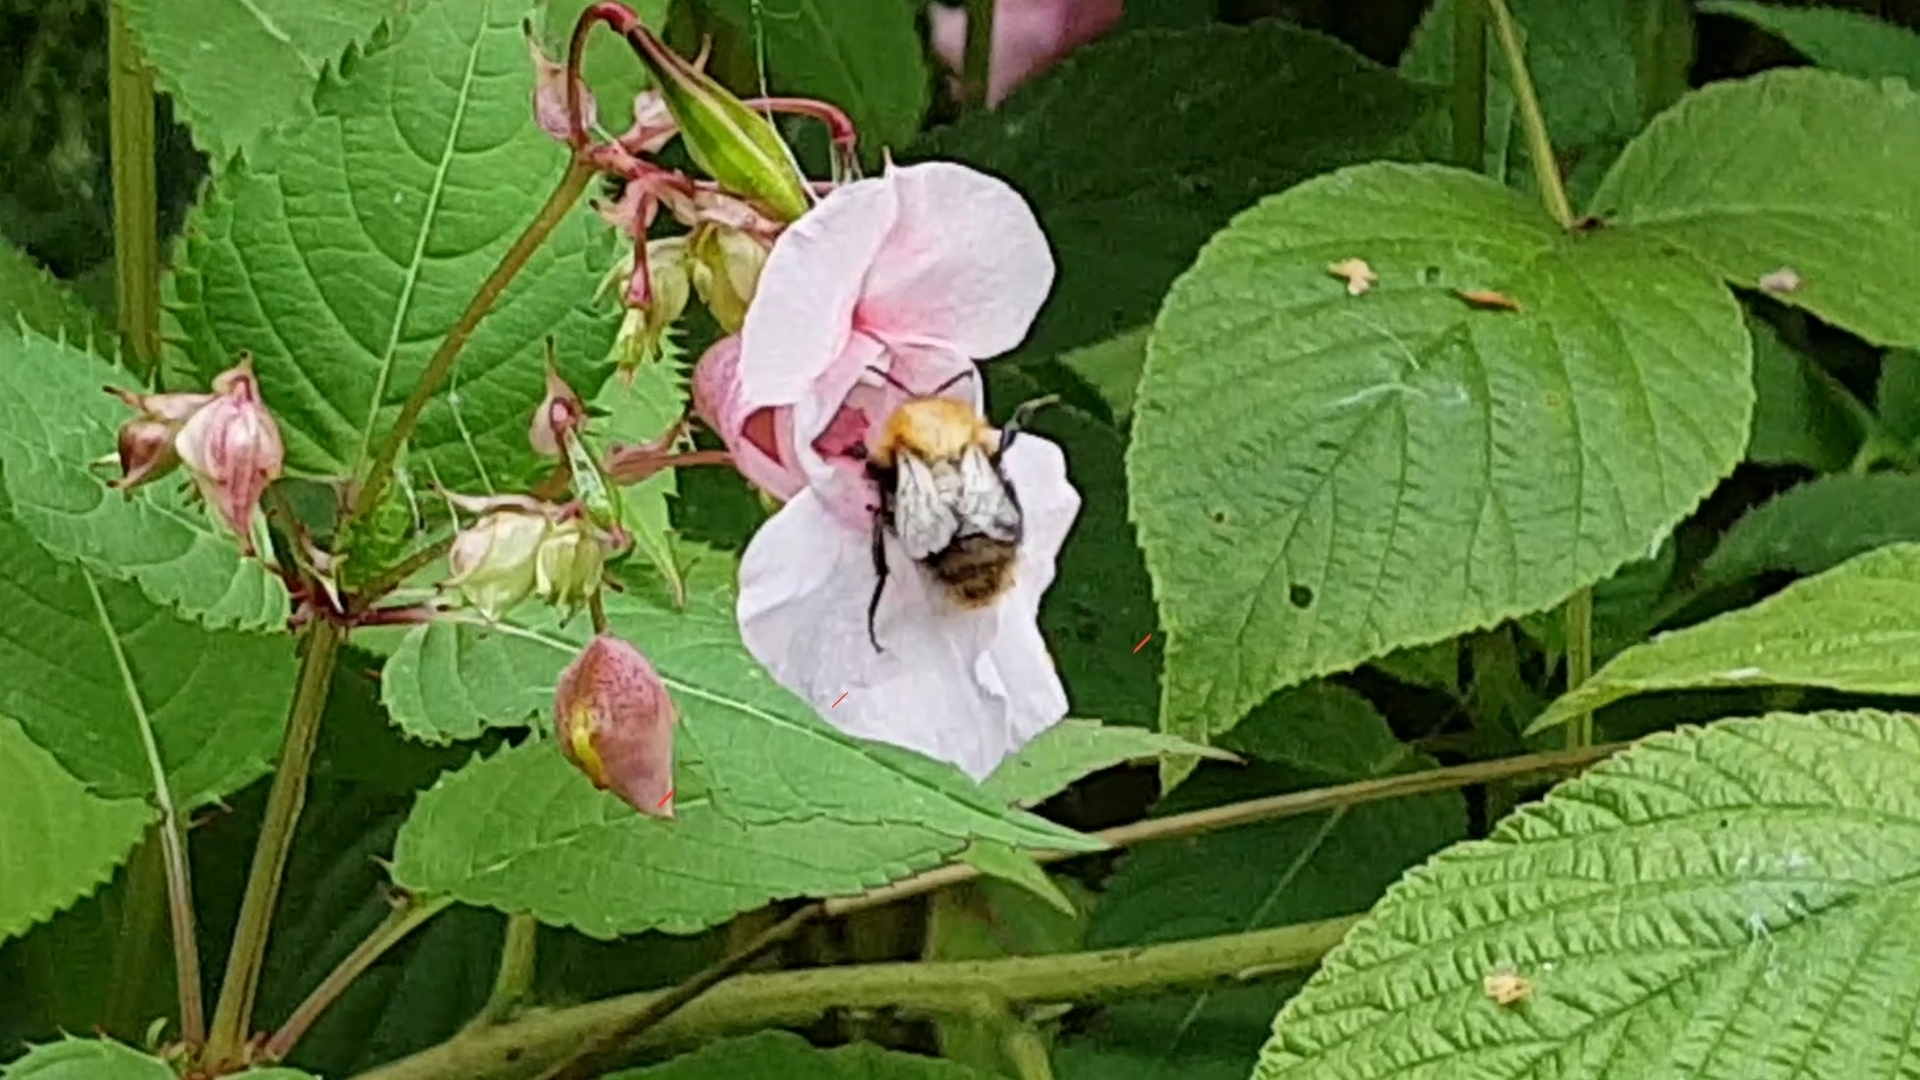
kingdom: Animalia
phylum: Arthropoda
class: Insecta
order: Hymenoptera
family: Apidae
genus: Bombus
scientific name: Bombus pascuorum
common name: Common carder bee
